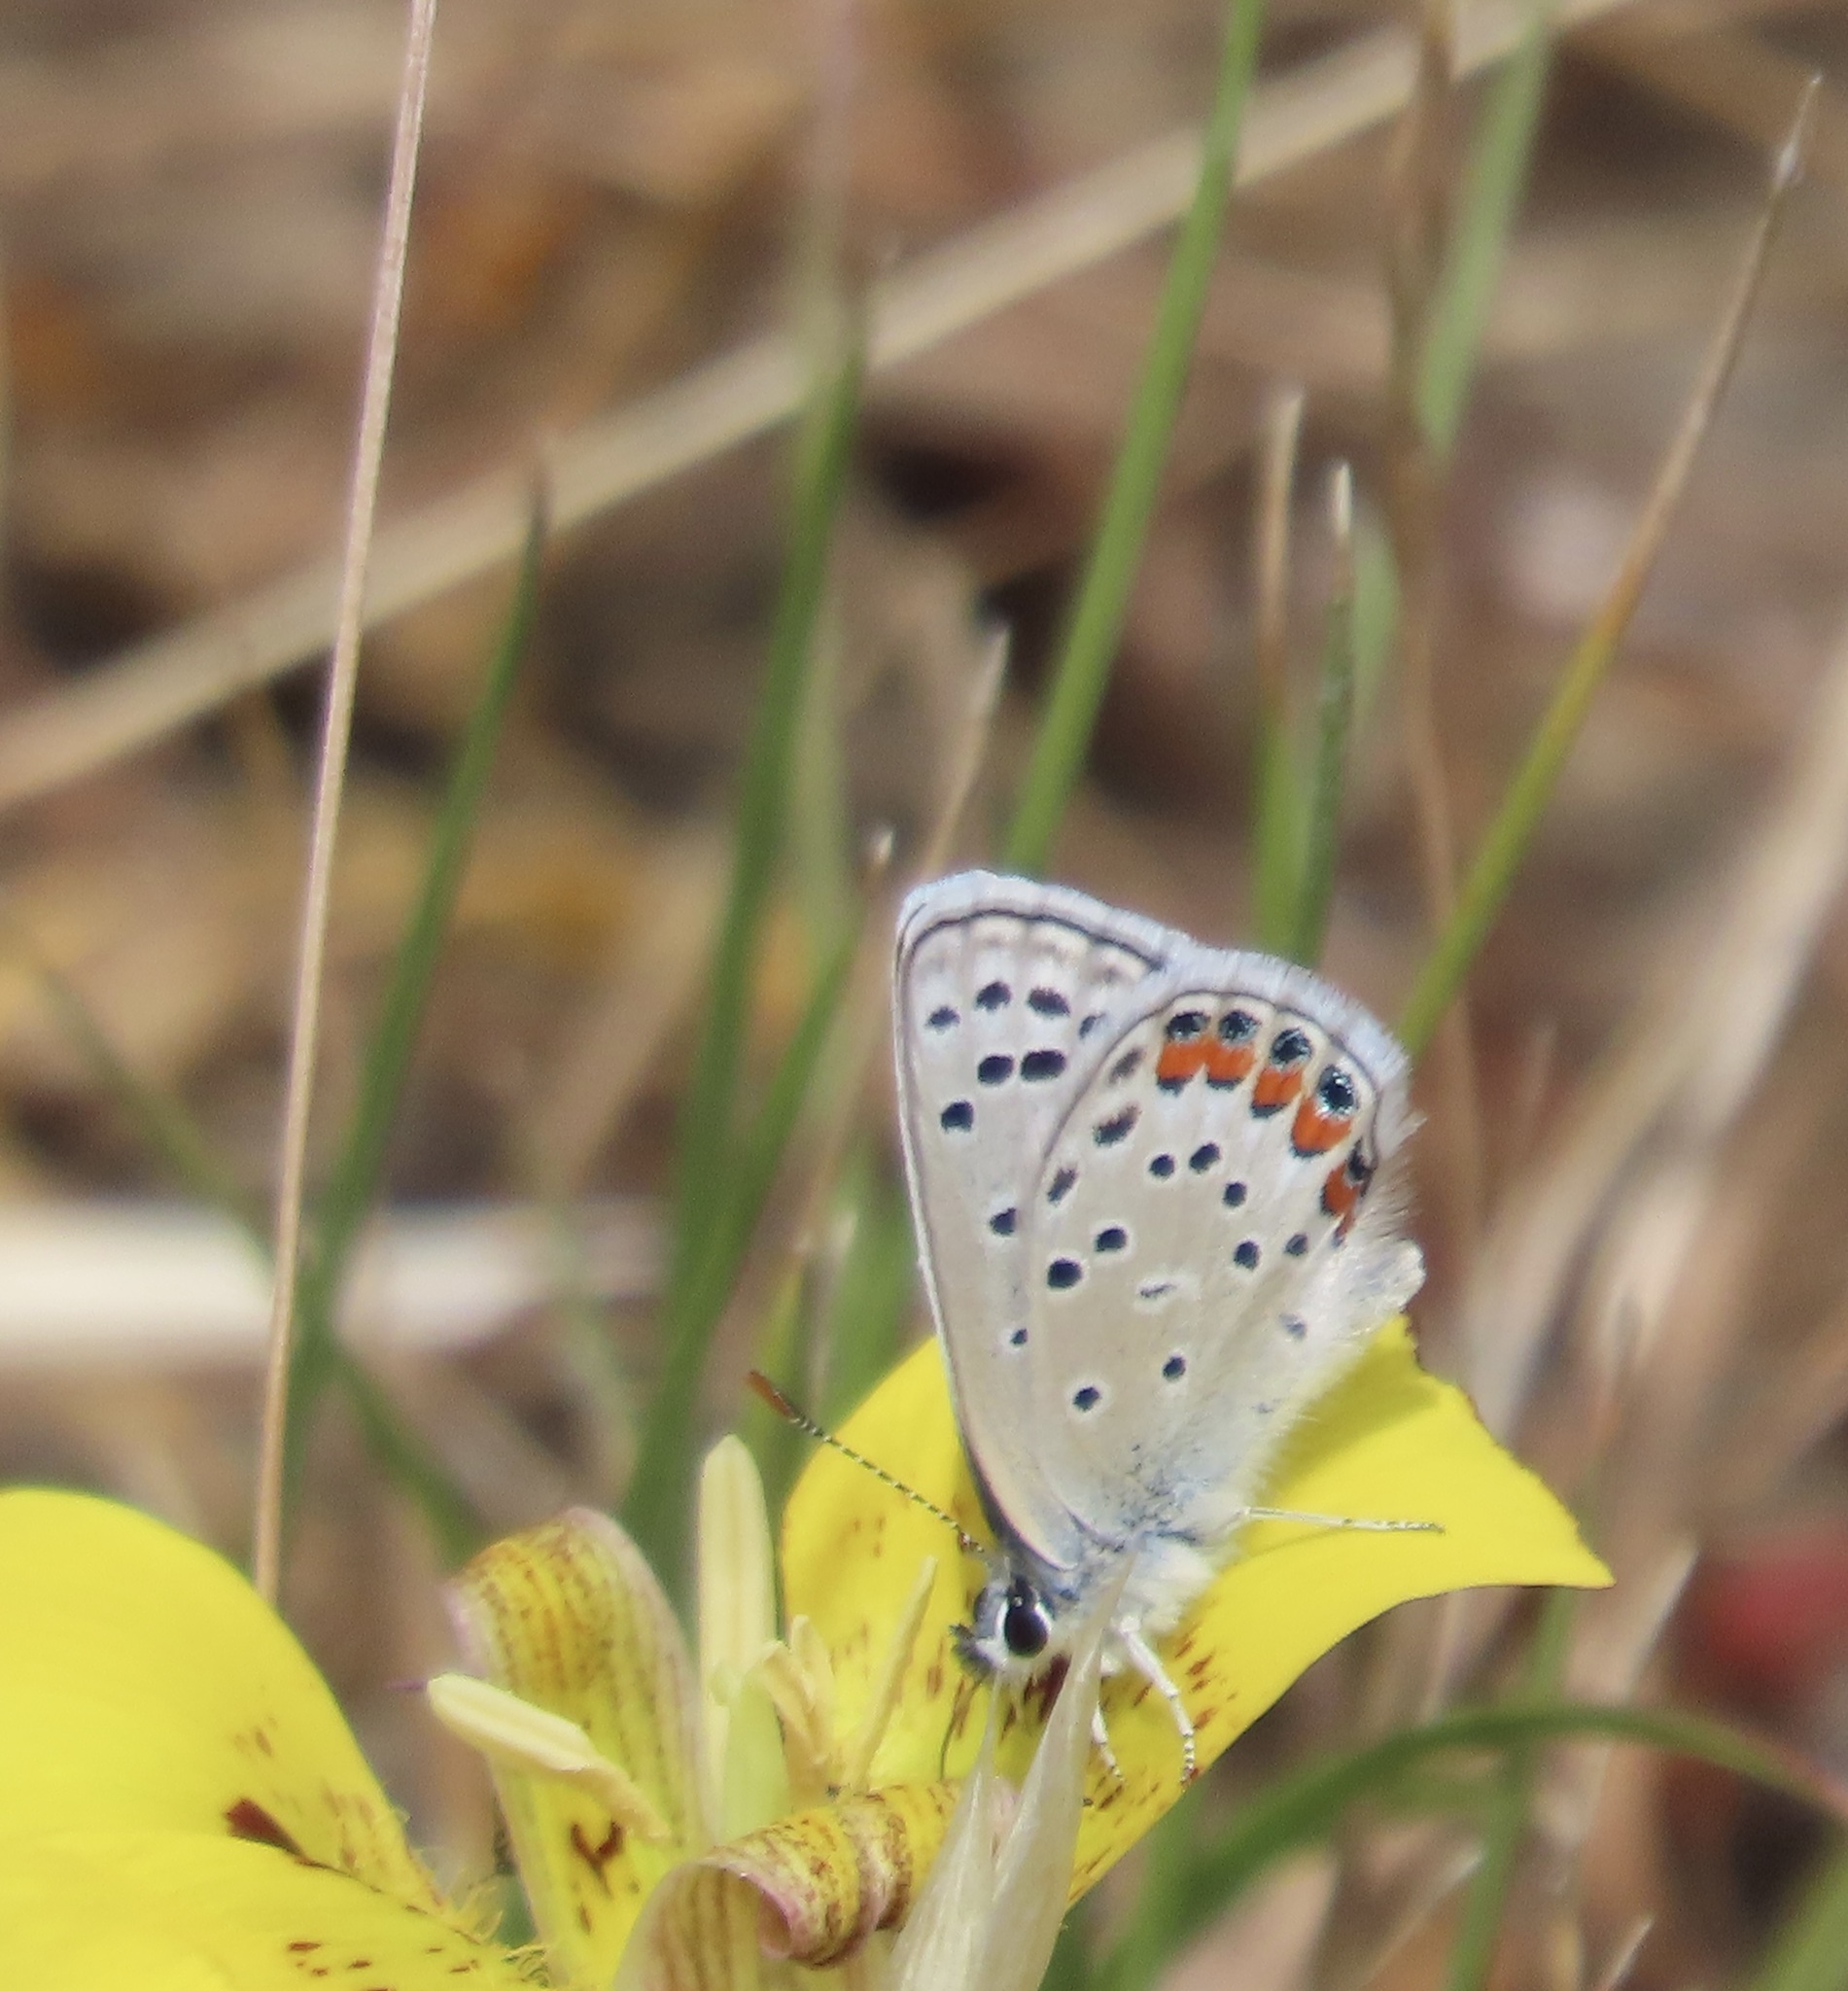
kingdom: Animalia
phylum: Arthropoda
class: Insecta
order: Lepidoptera
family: Lycaenidae
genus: Icaricia
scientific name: Icaricia acmon
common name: Acmon blue
